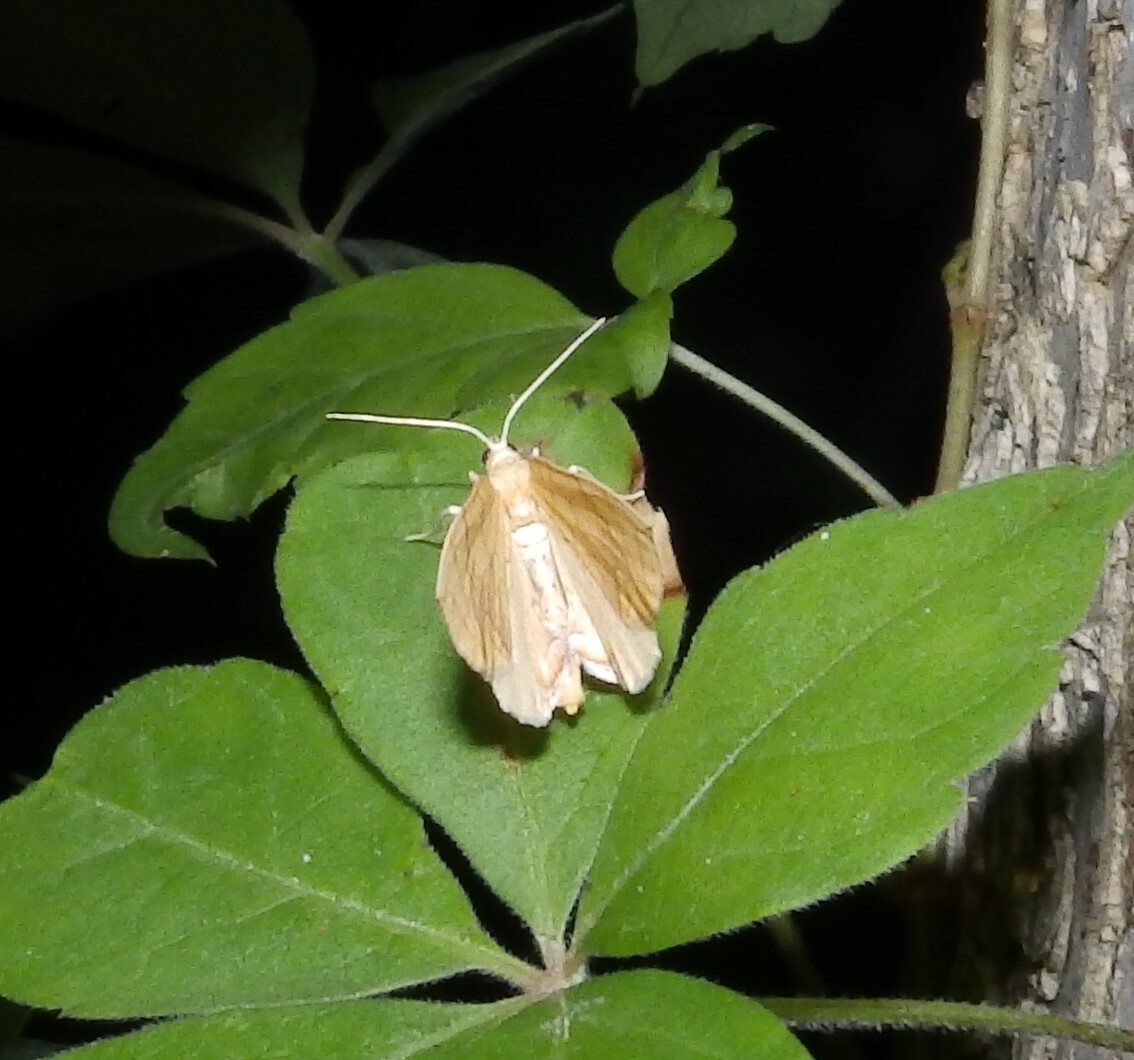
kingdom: Animalia
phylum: Arthropoda
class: Insecta
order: Lepidoptera
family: Geometridae
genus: Eulithis
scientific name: Eulithis
